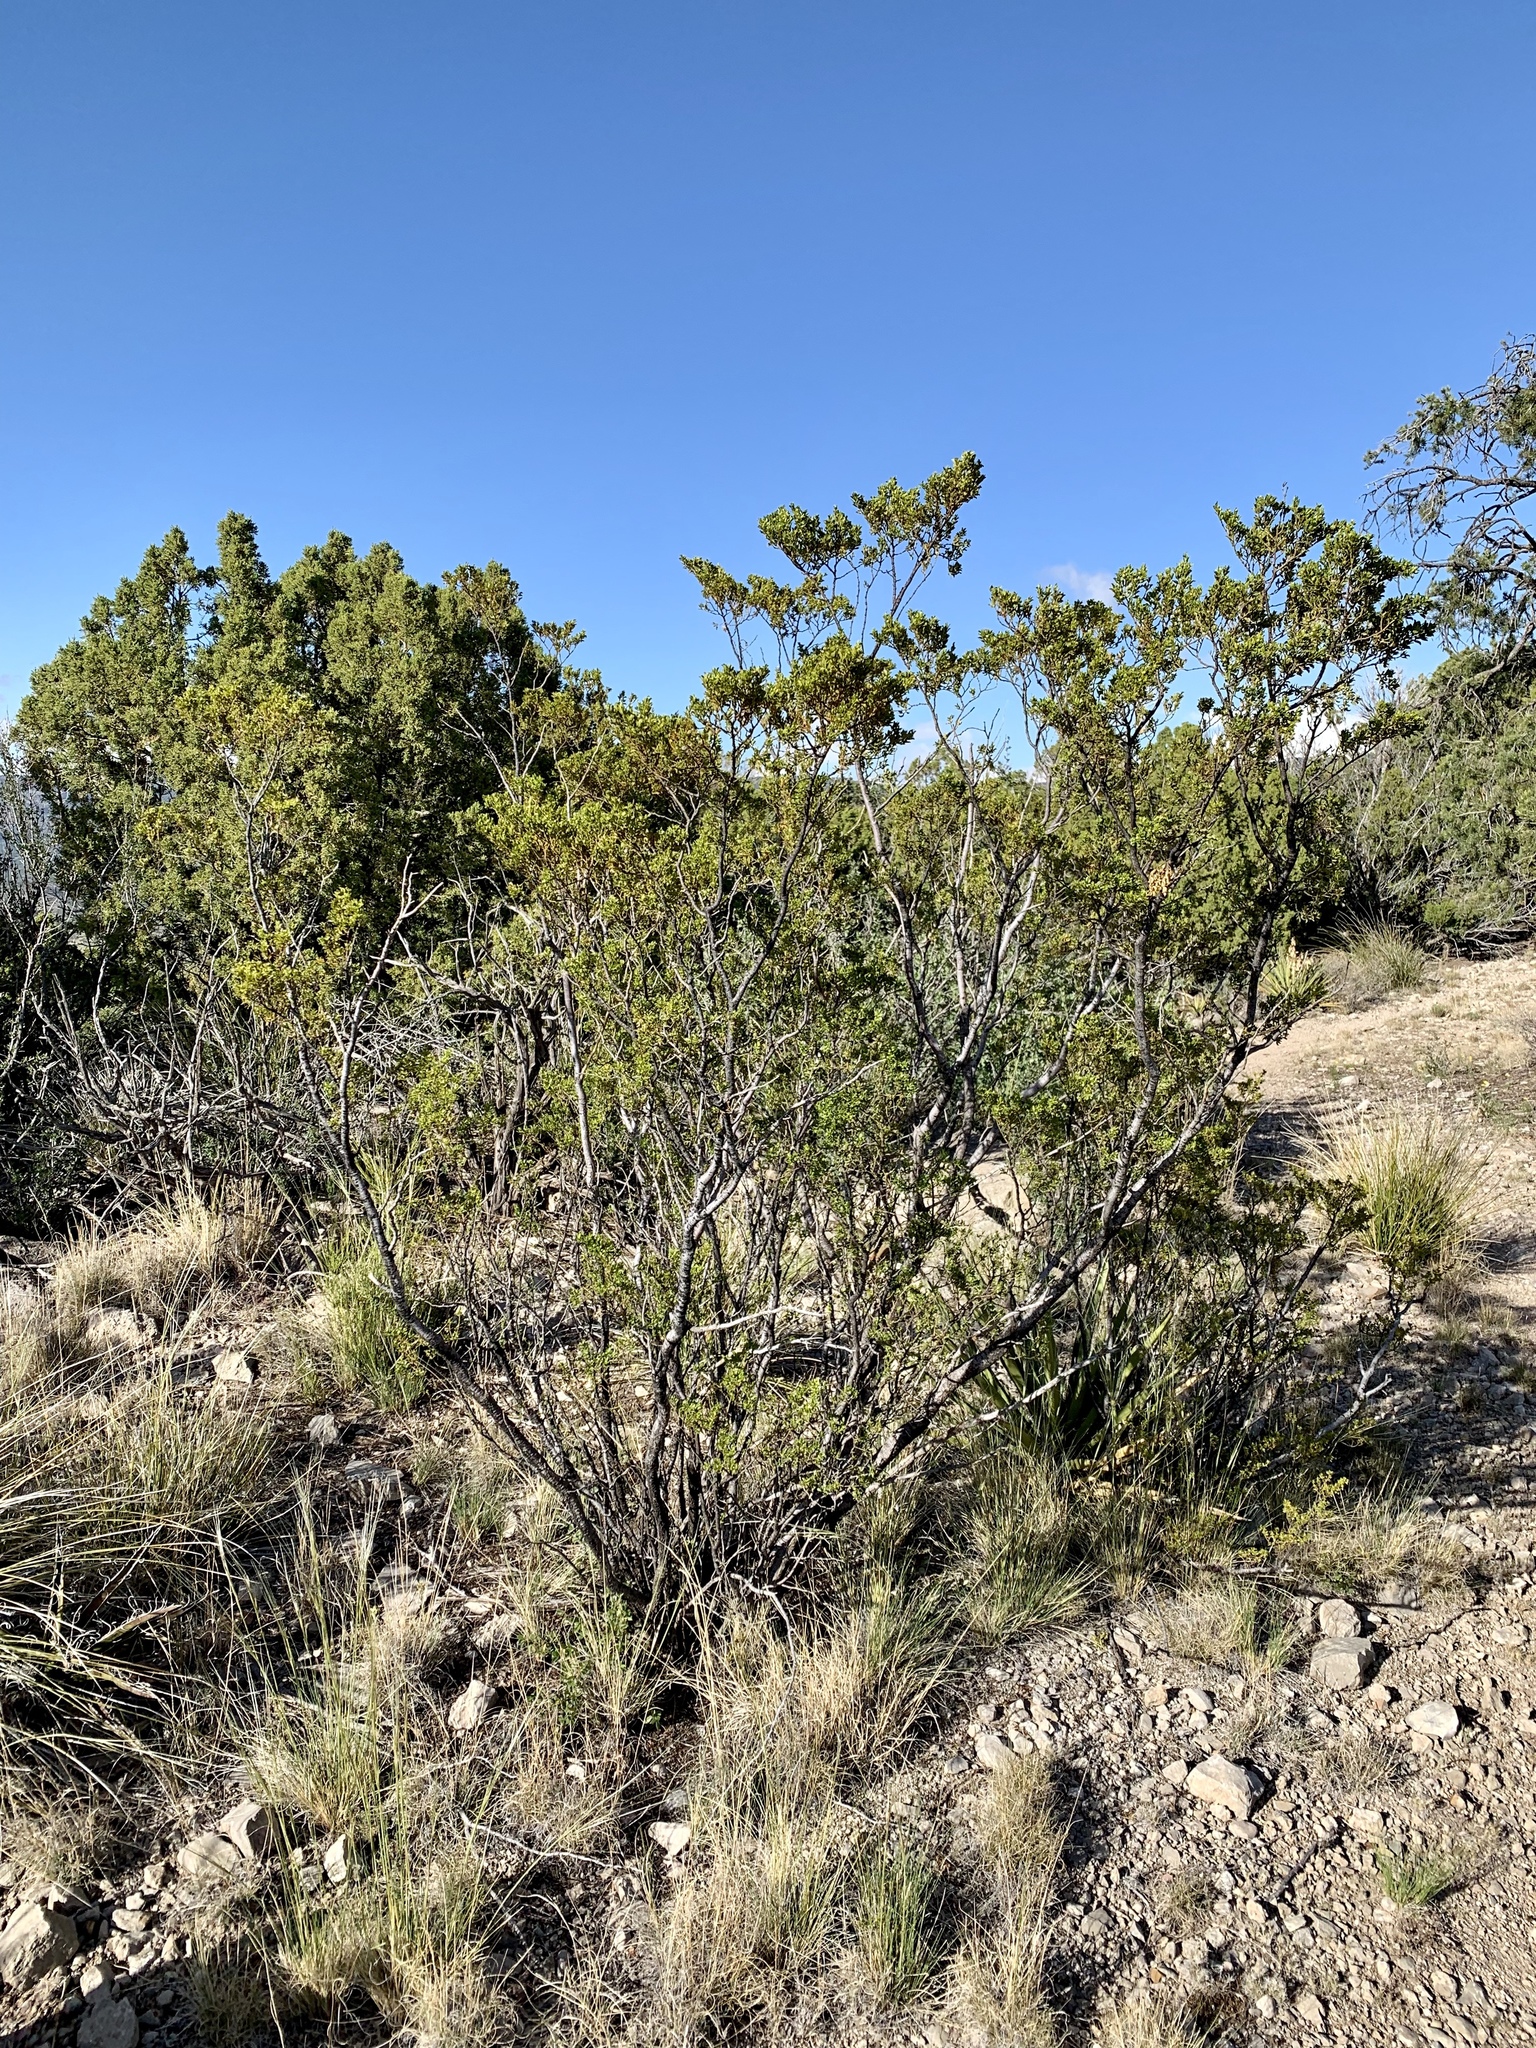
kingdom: Plantae
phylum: Tracheophyta
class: Magnoliopsida
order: Zygophyllales
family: Zygophyllaceae
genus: Larrea
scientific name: Larrea tridentata
